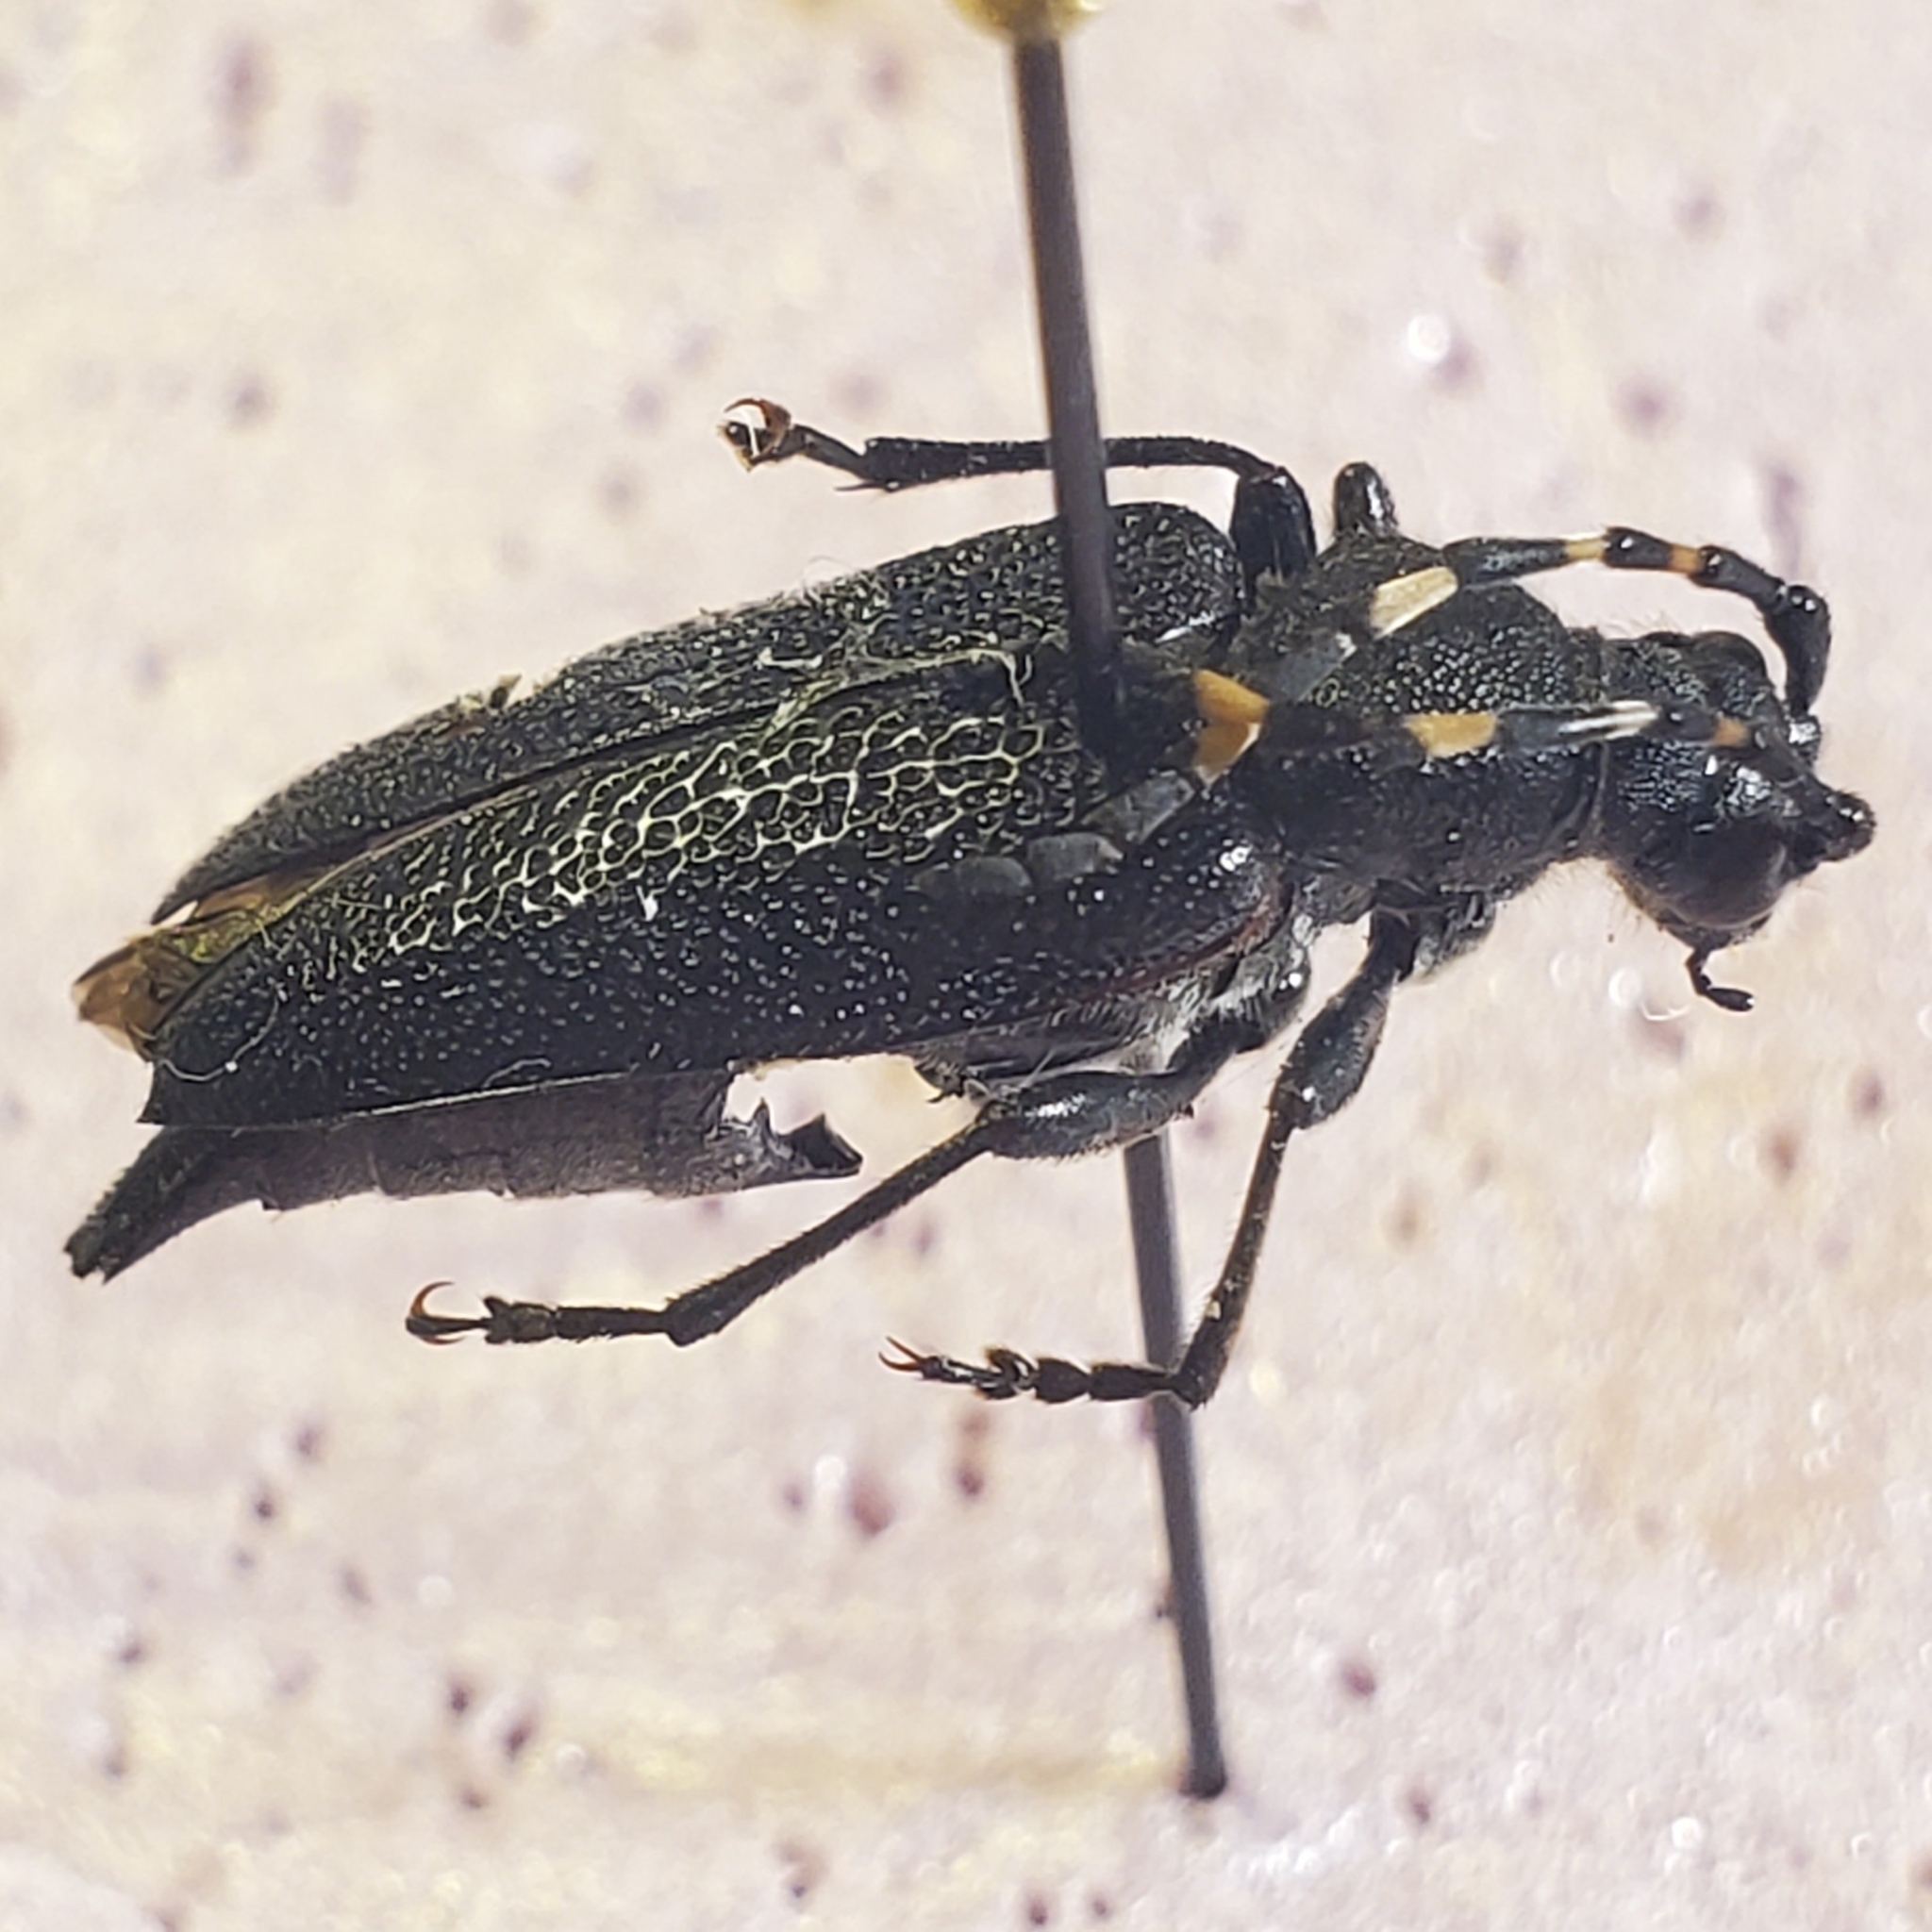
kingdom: Animalia
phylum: Arthropoda
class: Insecta
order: Coleoptera
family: Cerambycidae
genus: Stictoleptura
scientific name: Stictoleptura canadensis
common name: Red-shouldered pine borer
